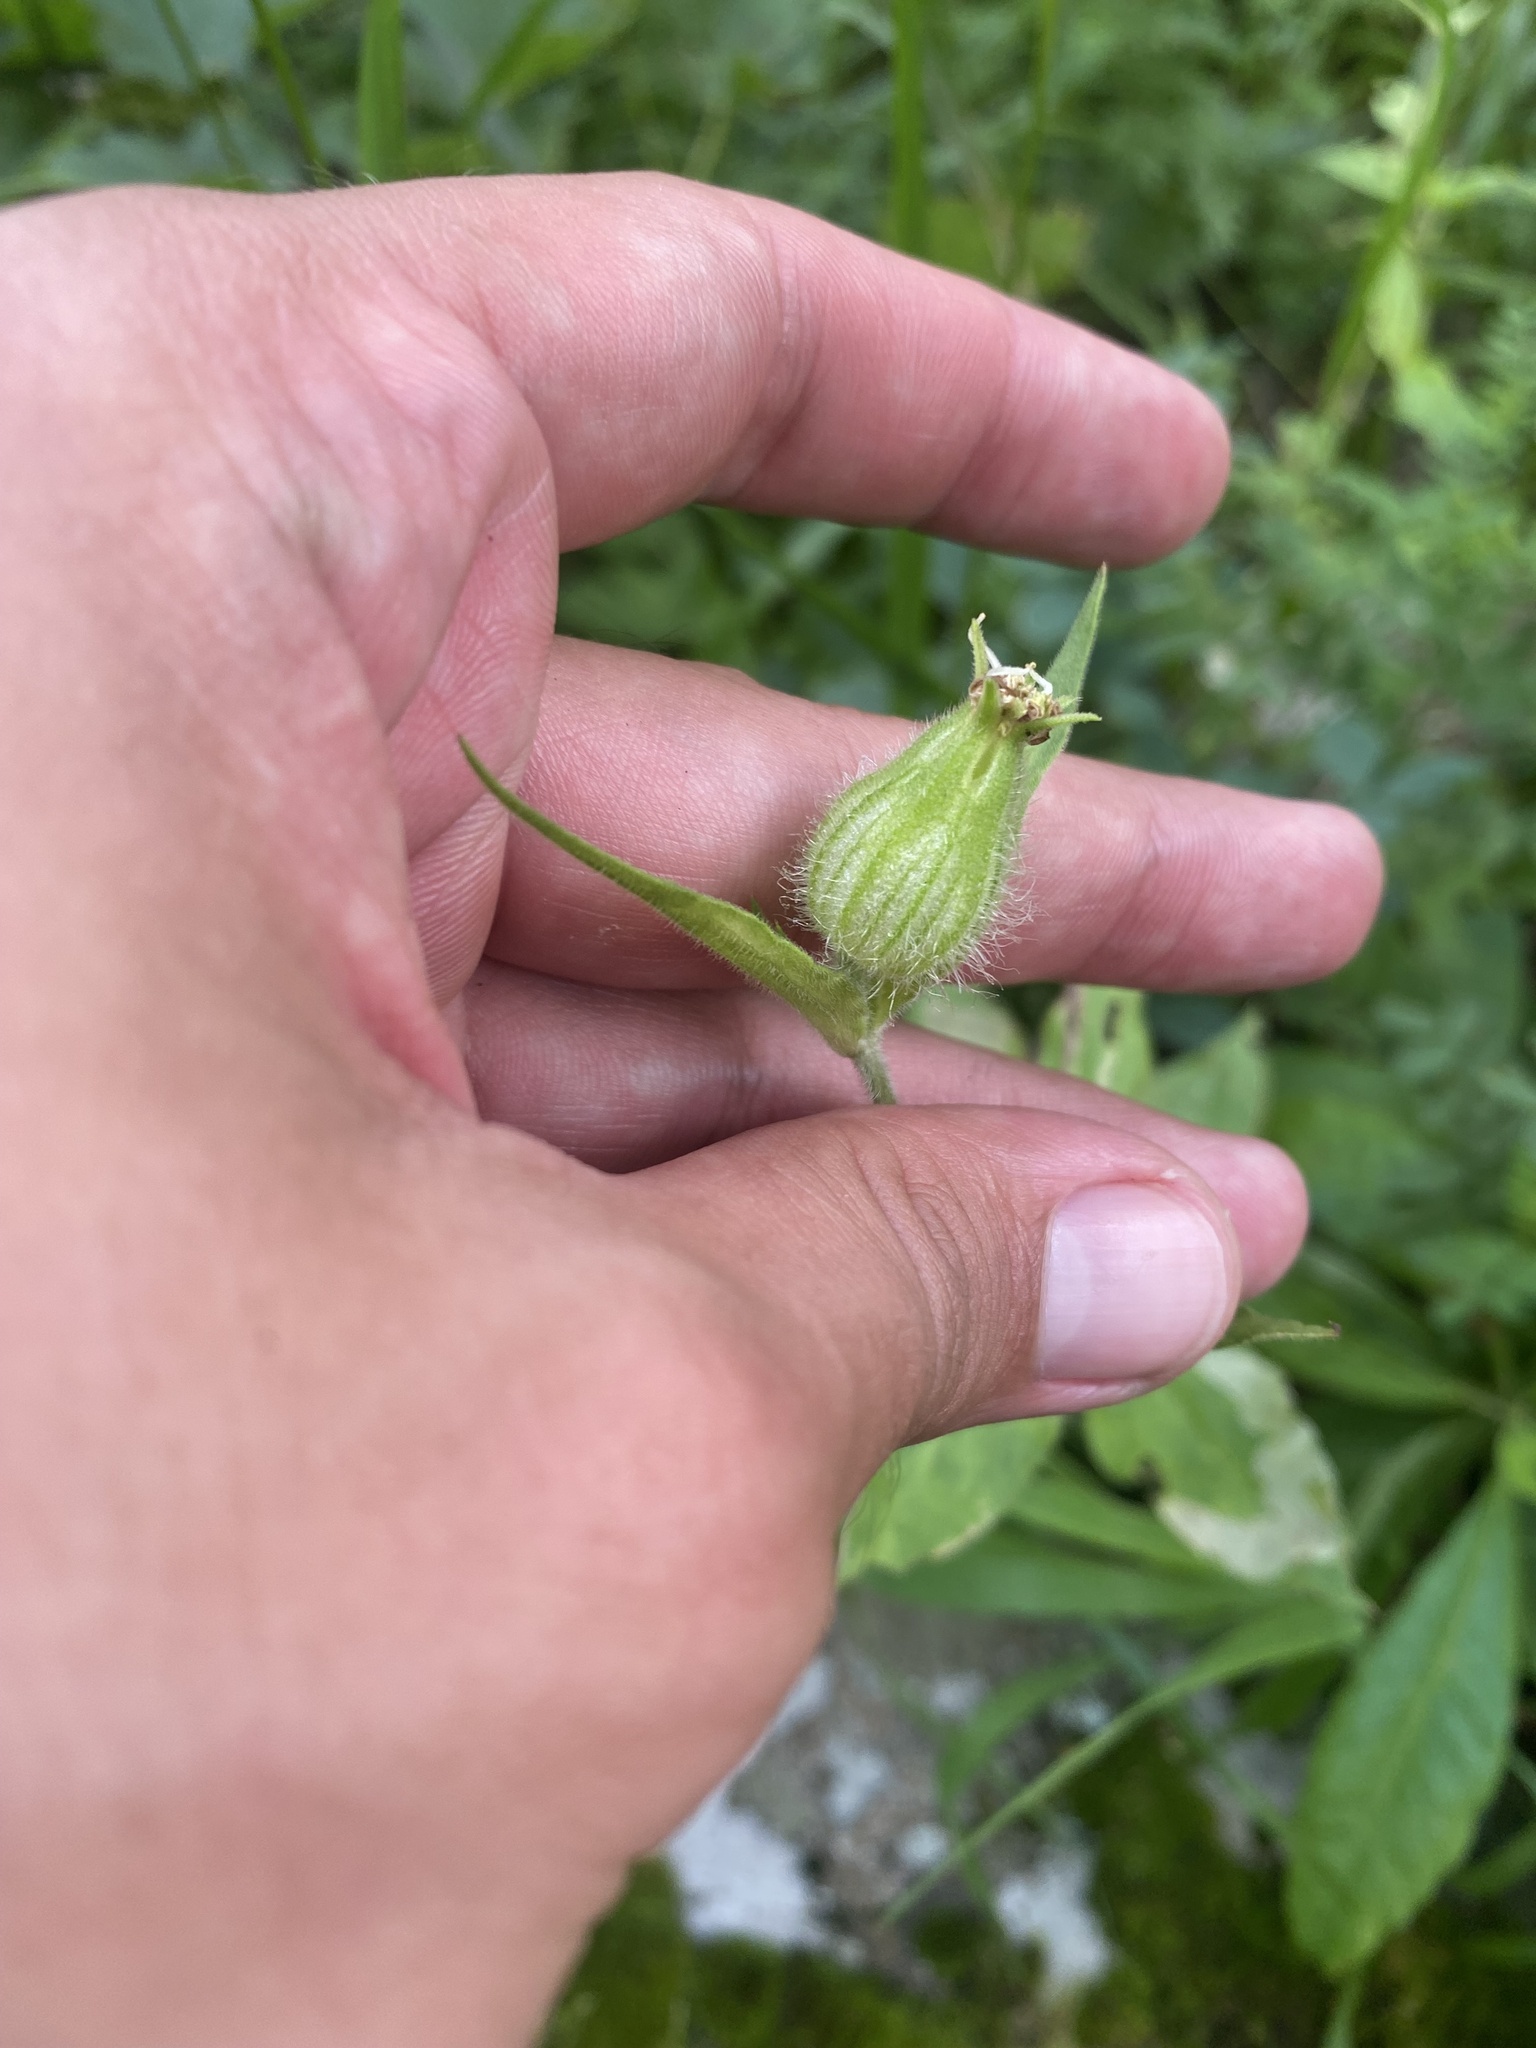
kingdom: Plantae
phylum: Tracheophyta
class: Magnoliopsida
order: Caryophyllales
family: Caryophyllaceae
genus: Silene
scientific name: Silene latifolia
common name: White campion
